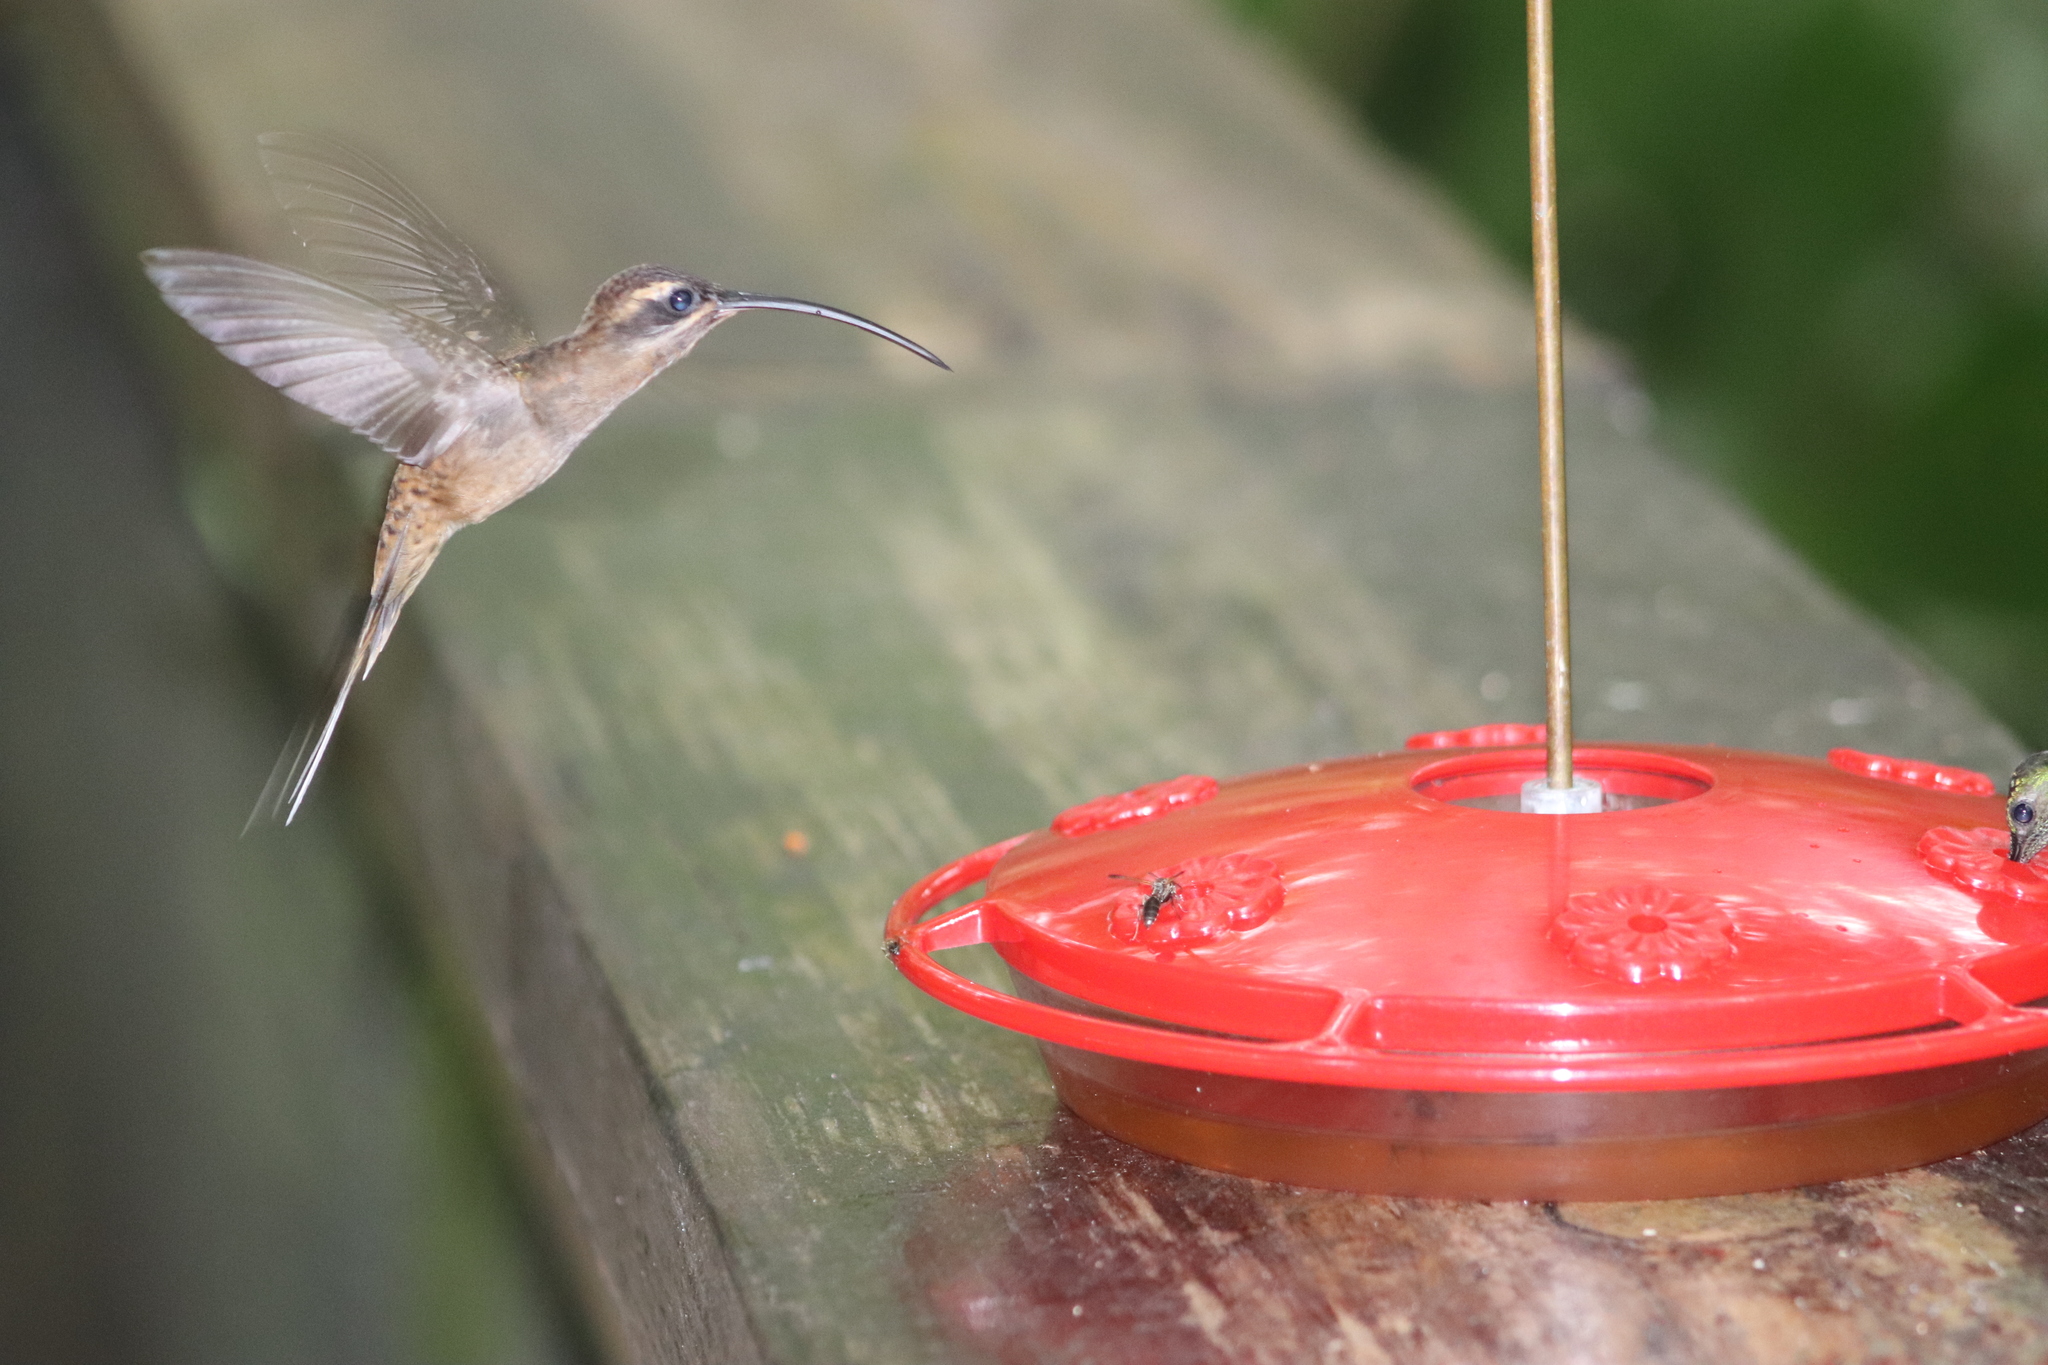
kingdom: Animalia
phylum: Chordata
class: Aves
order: Apodiformes
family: Trochilidae
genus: Phaethornis
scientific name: Phaethornis longirostris
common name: Long-billed hermit
